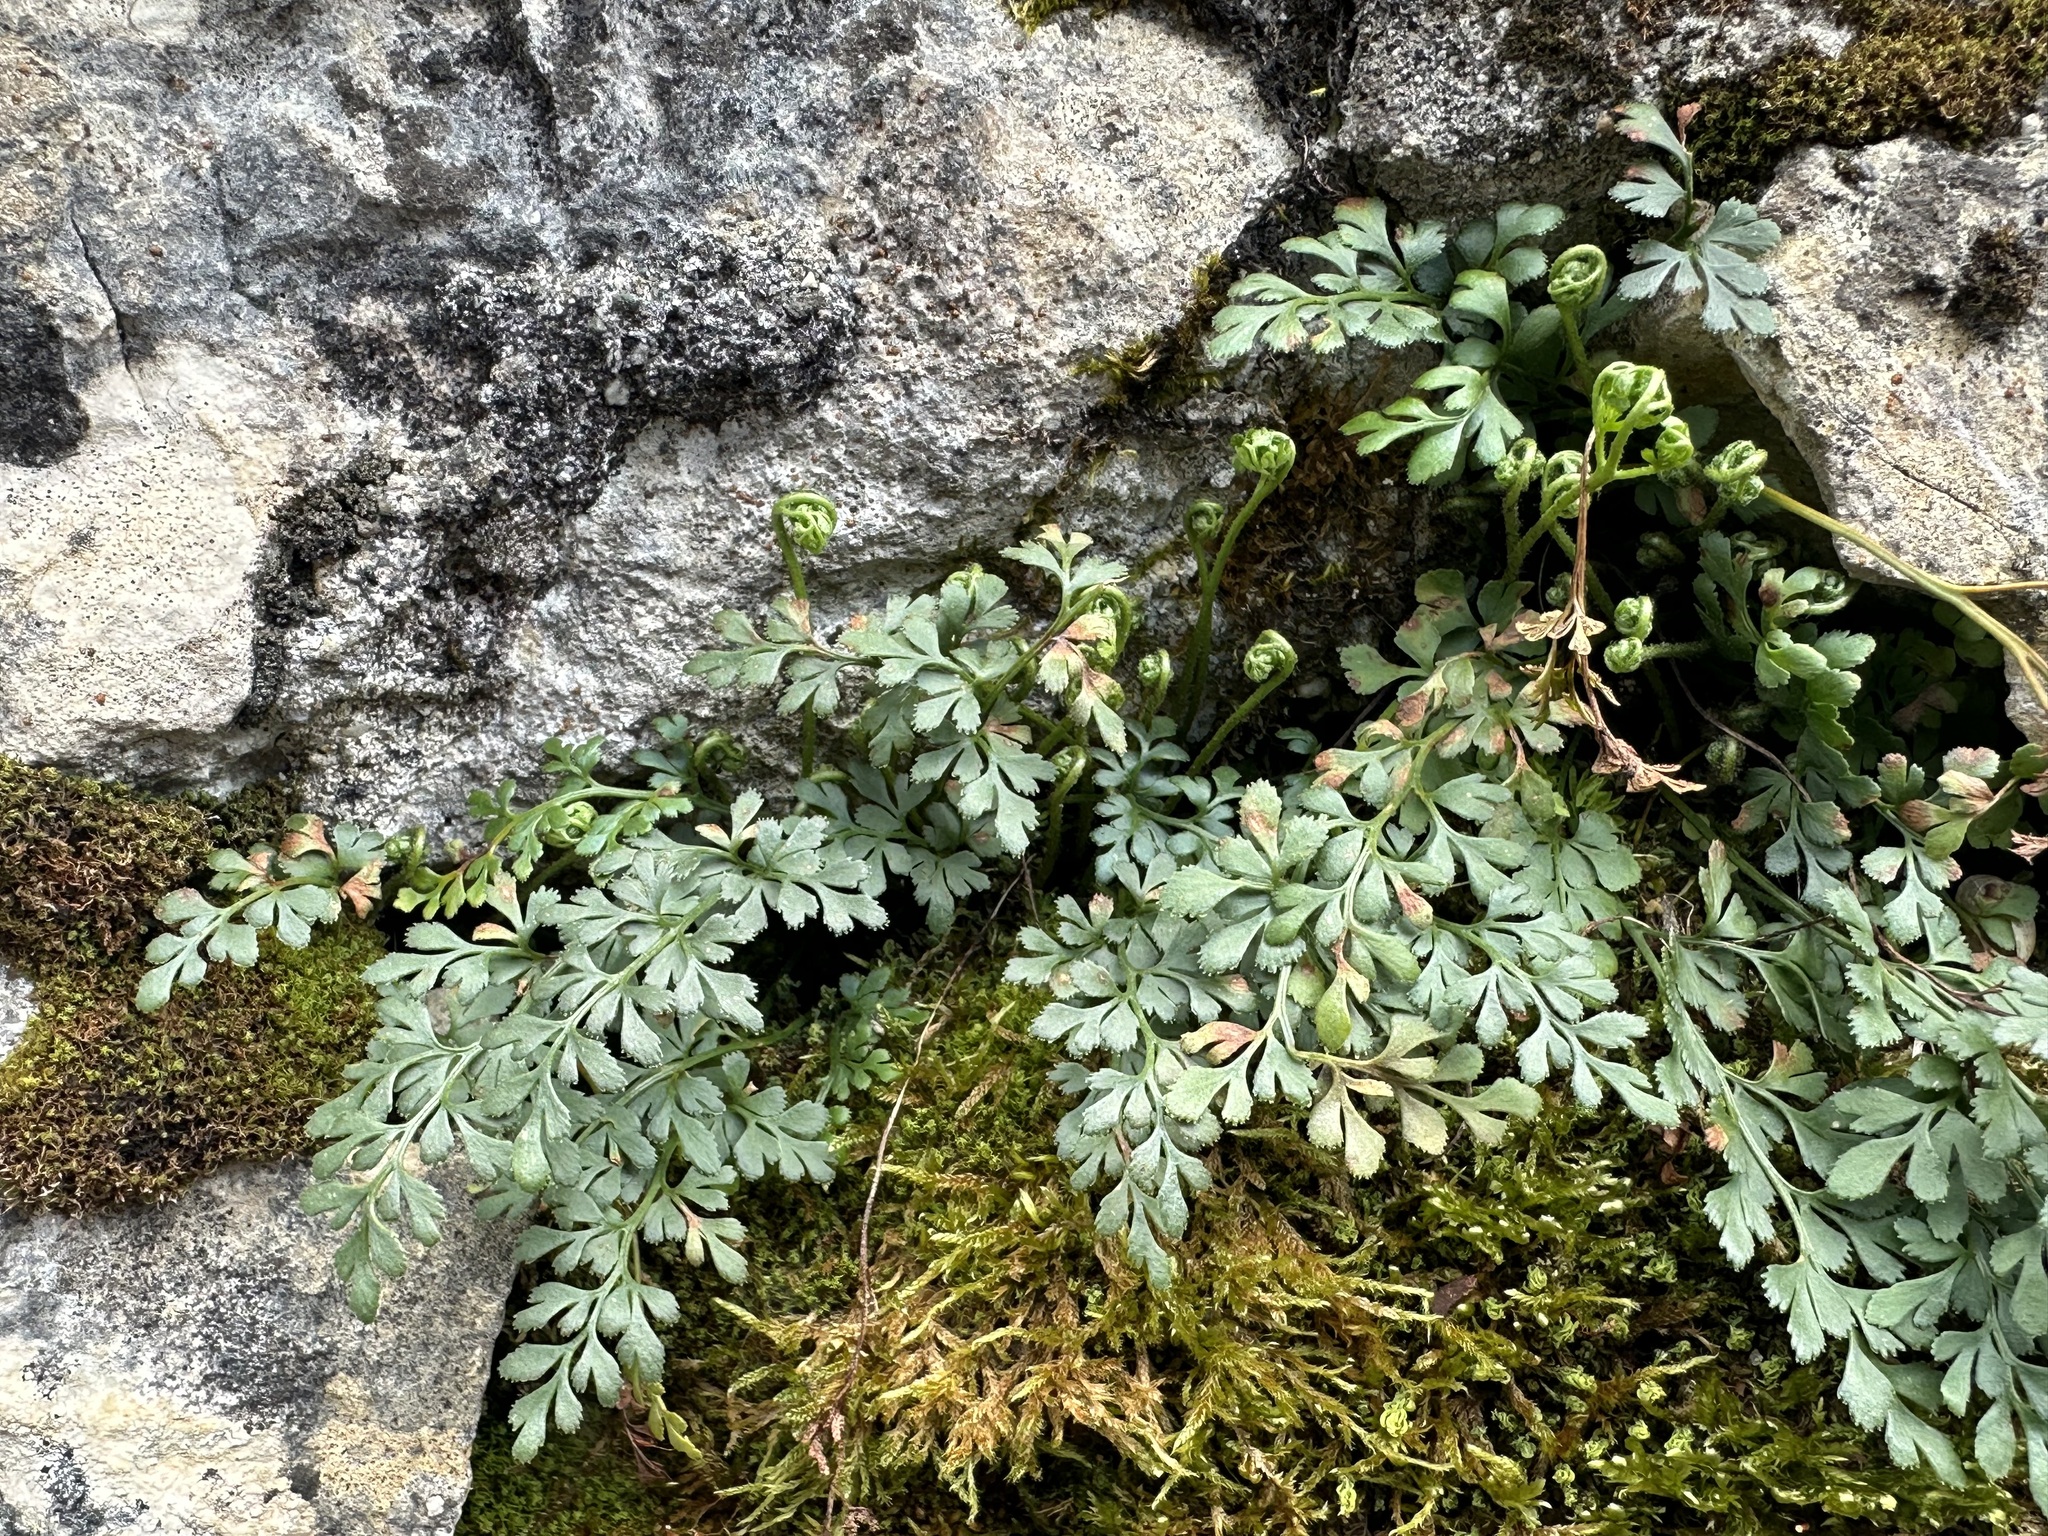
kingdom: Plantae
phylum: Tracheophyta
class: Polypodiopsida
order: Polypodiales
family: Aspleniaceae
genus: Asplenium
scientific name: Asplenium ruta-muraria
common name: Wall-rue
